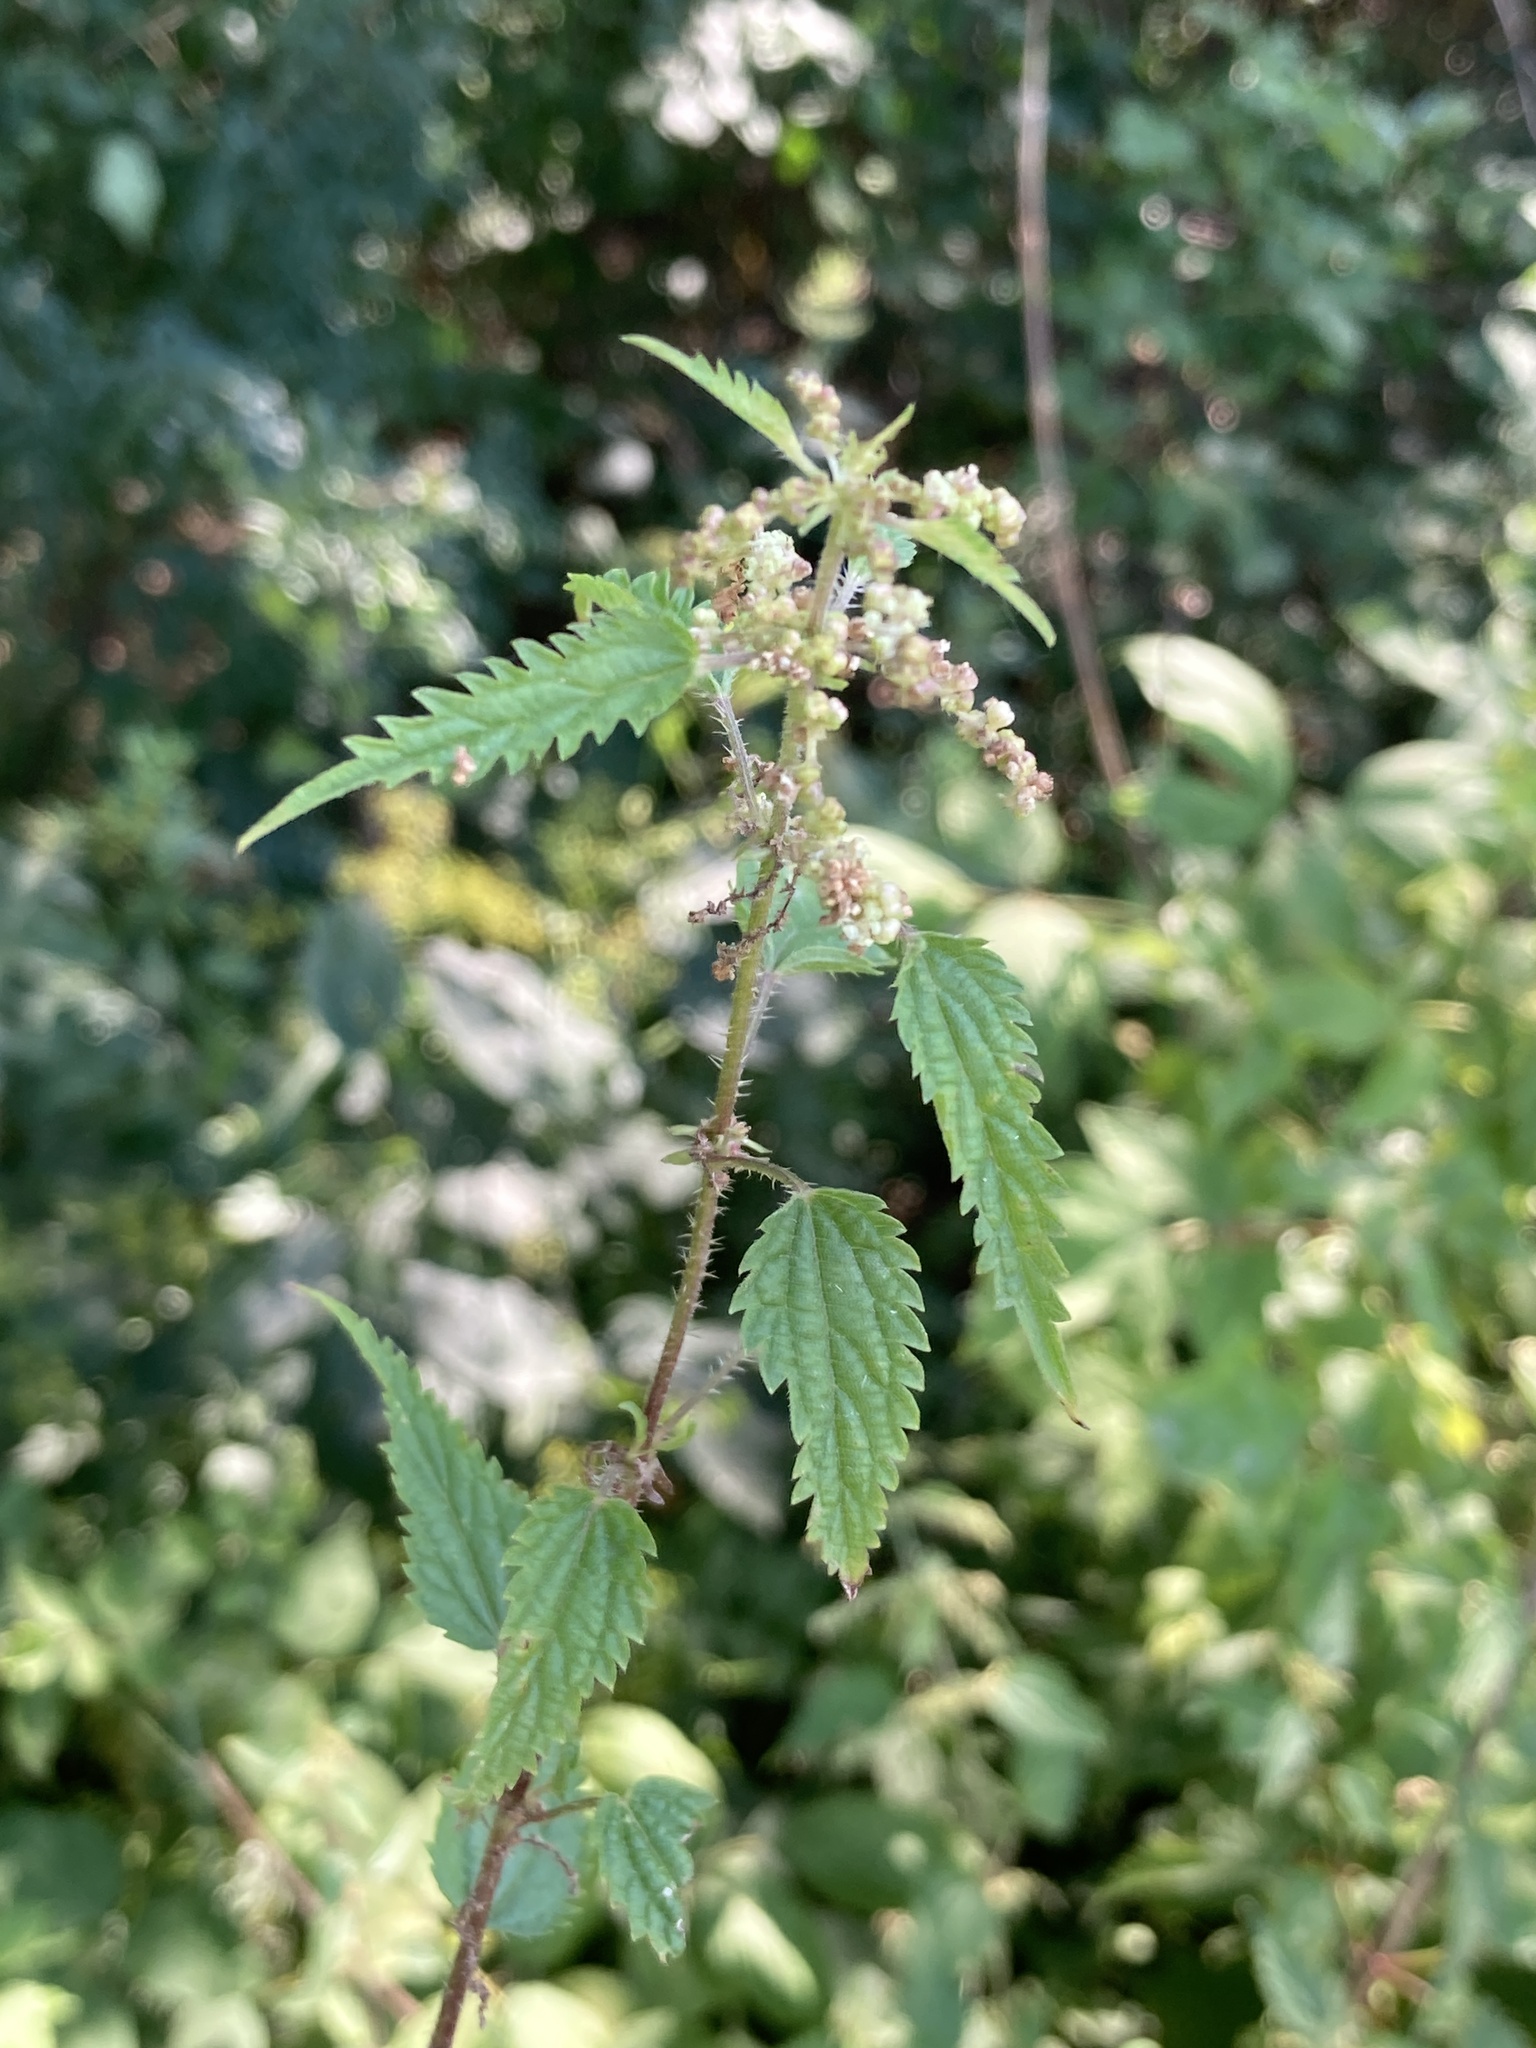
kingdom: Plantae
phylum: Tracheophyta
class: Magnoliopsida
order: Rosales
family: Urticaceae
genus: Urtica
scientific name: Urtica dioica
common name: Common nettle
